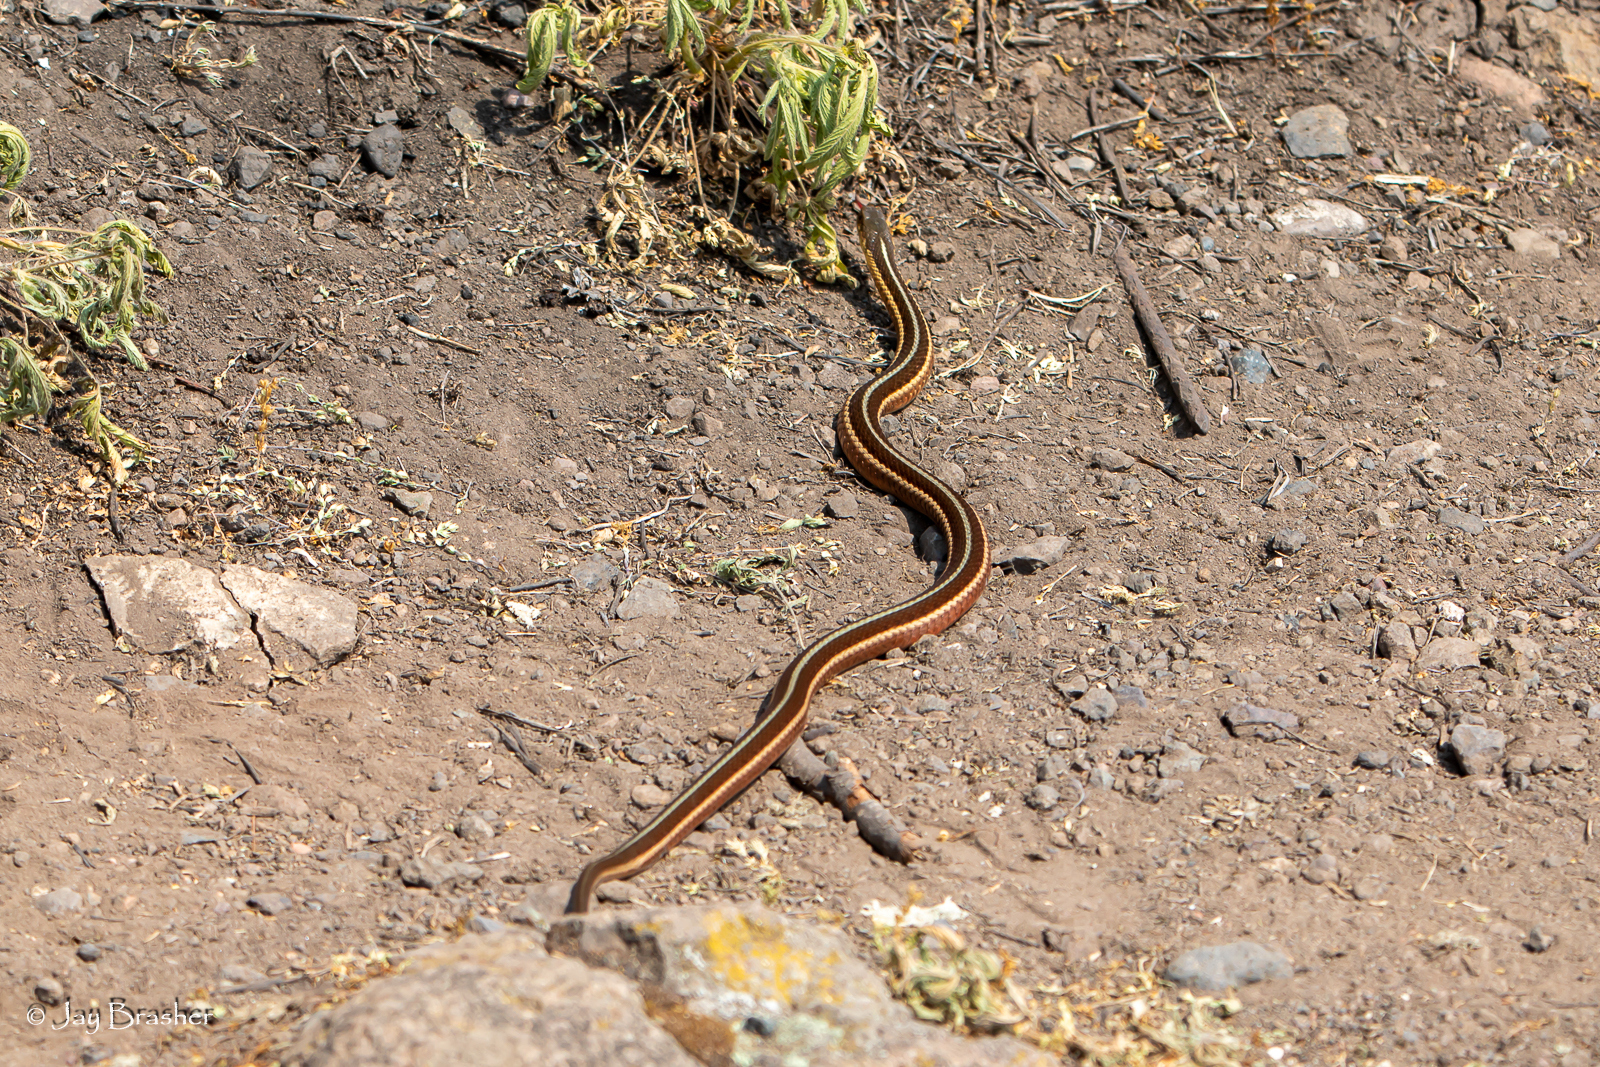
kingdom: Animalia
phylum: Chordata
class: Squamata
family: Colubridae
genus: Thamnophis
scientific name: Thamnophis sirtalis
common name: Common garter snake
